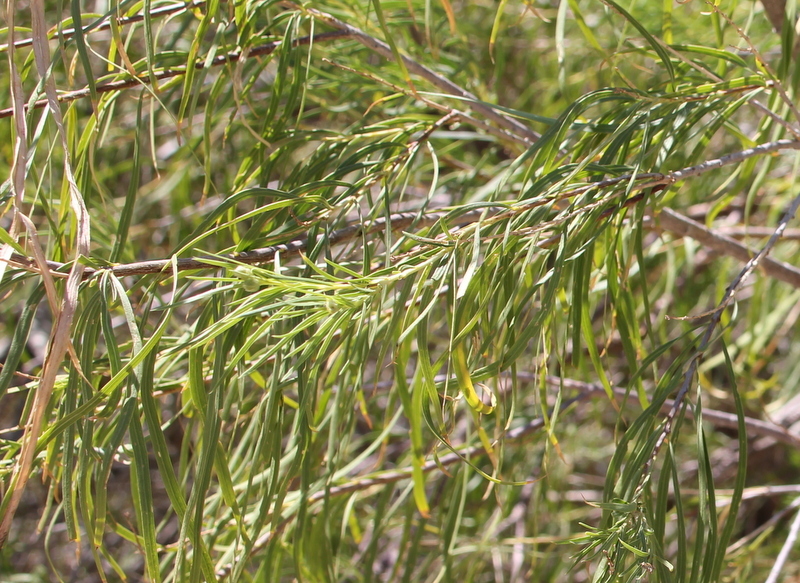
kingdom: Plantae
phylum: Tracheophyta
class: Magnoliopsida
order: Lamiales
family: Bignoniaceae
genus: Chilopsis
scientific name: Chilopsis linearis
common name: Desert-willow
